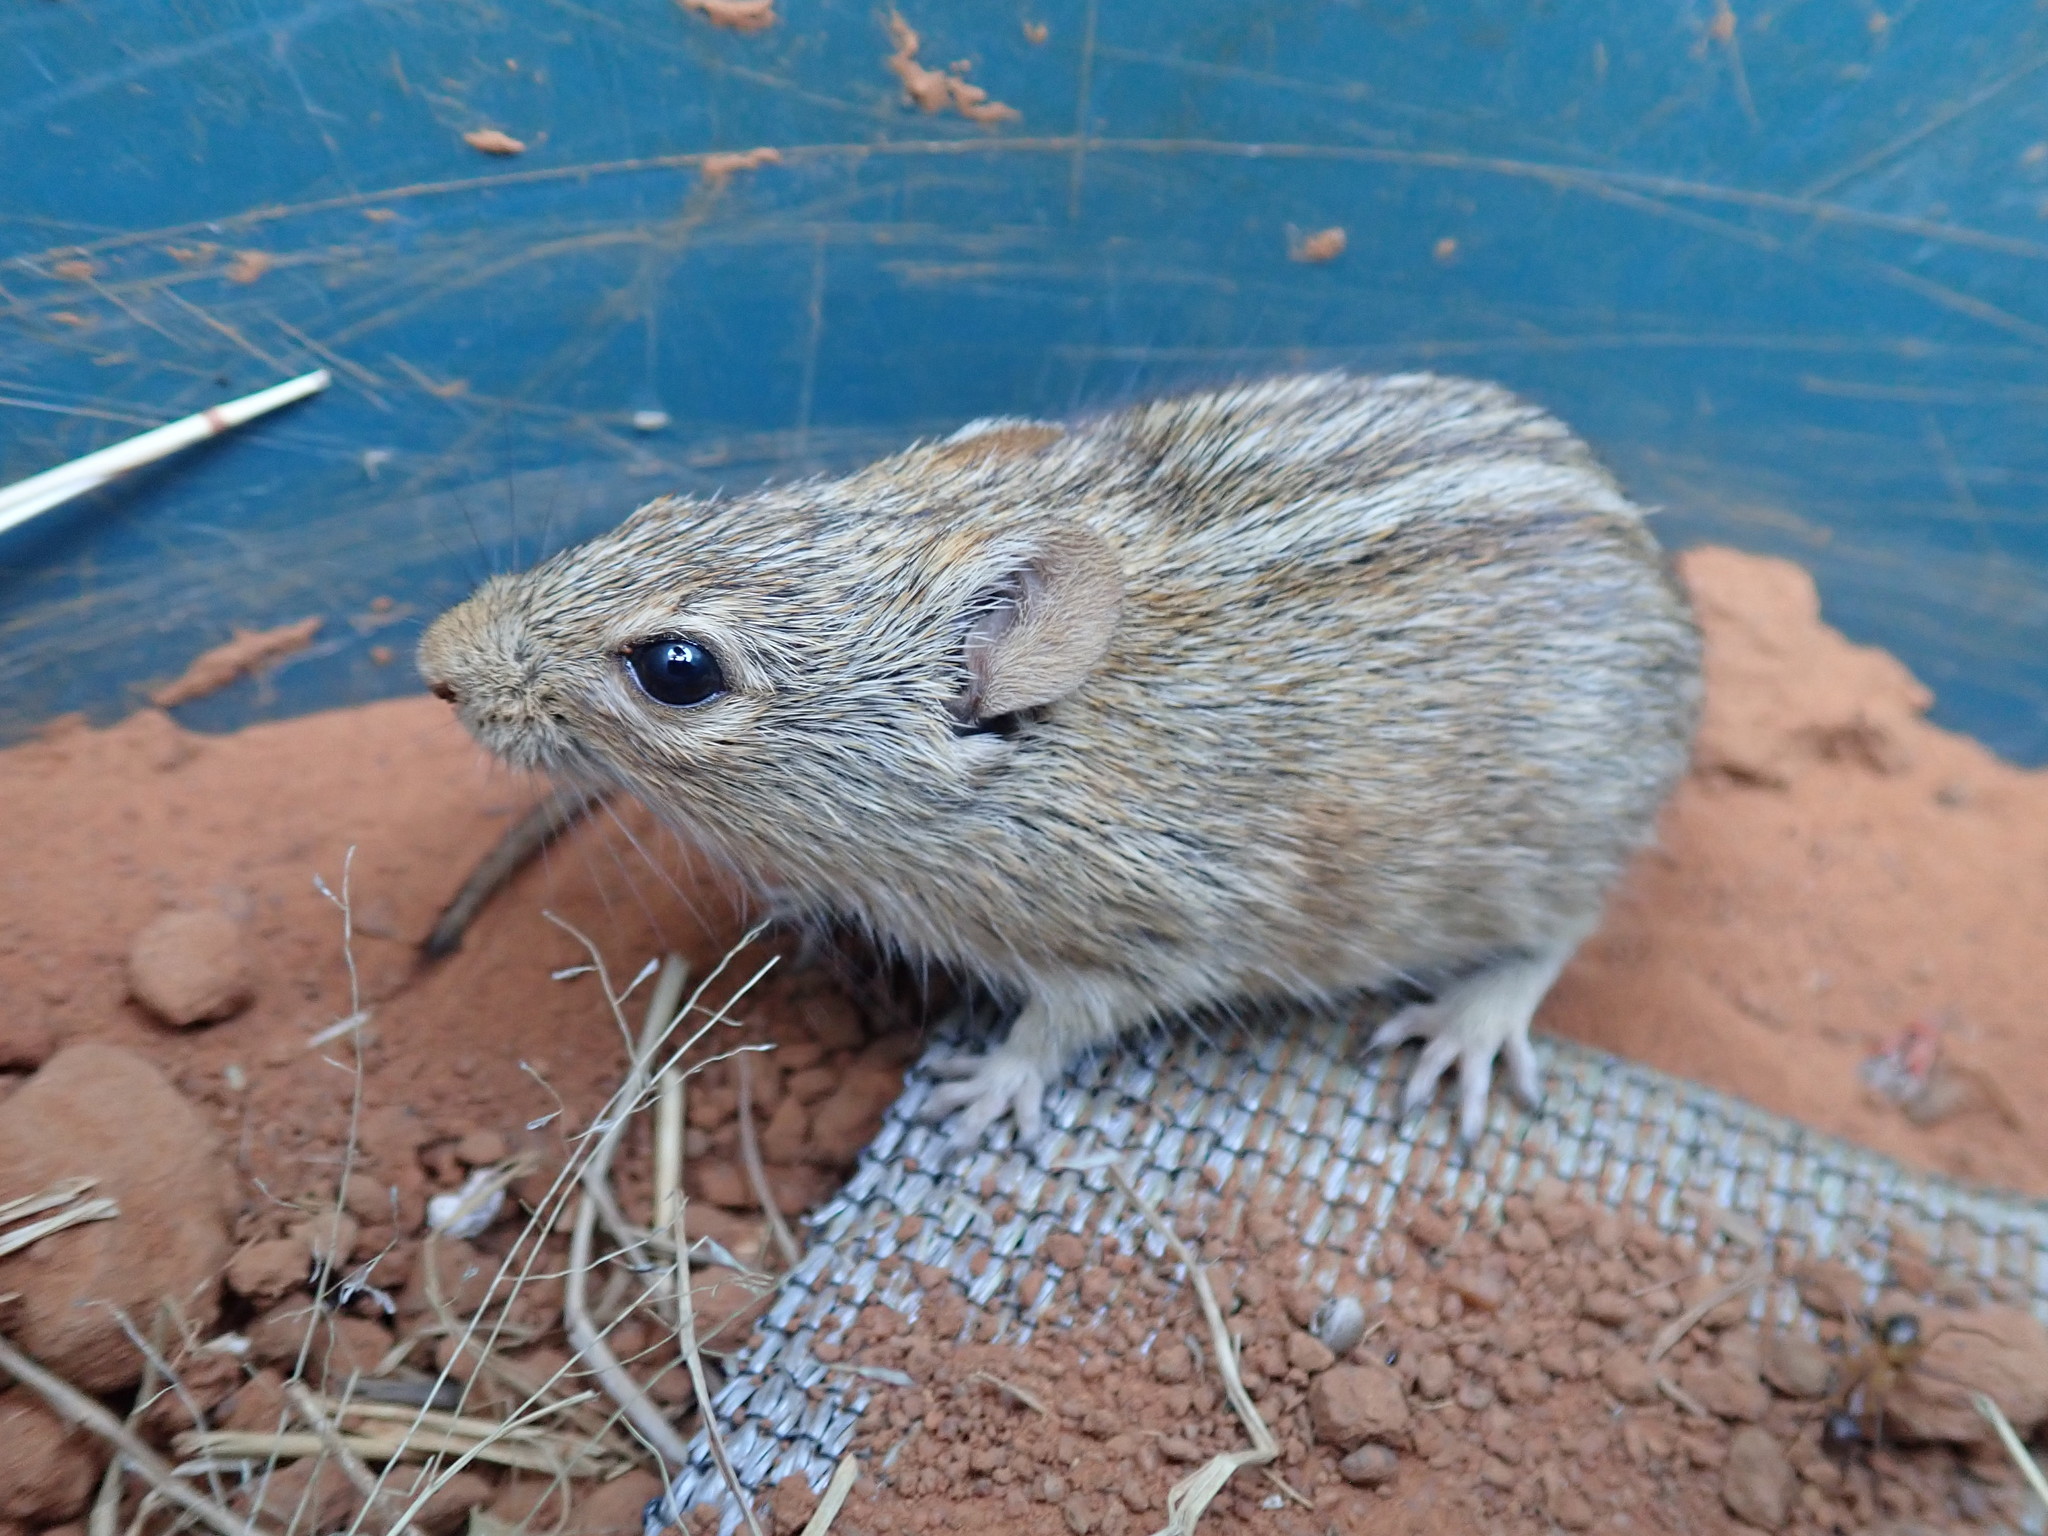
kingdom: Animalia
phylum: Chordata
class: Mammalia
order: Rodentia
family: Muridae
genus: Rhabdomys
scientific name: Rhabdomys pumilio
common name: Xeric four-striped grass rat
